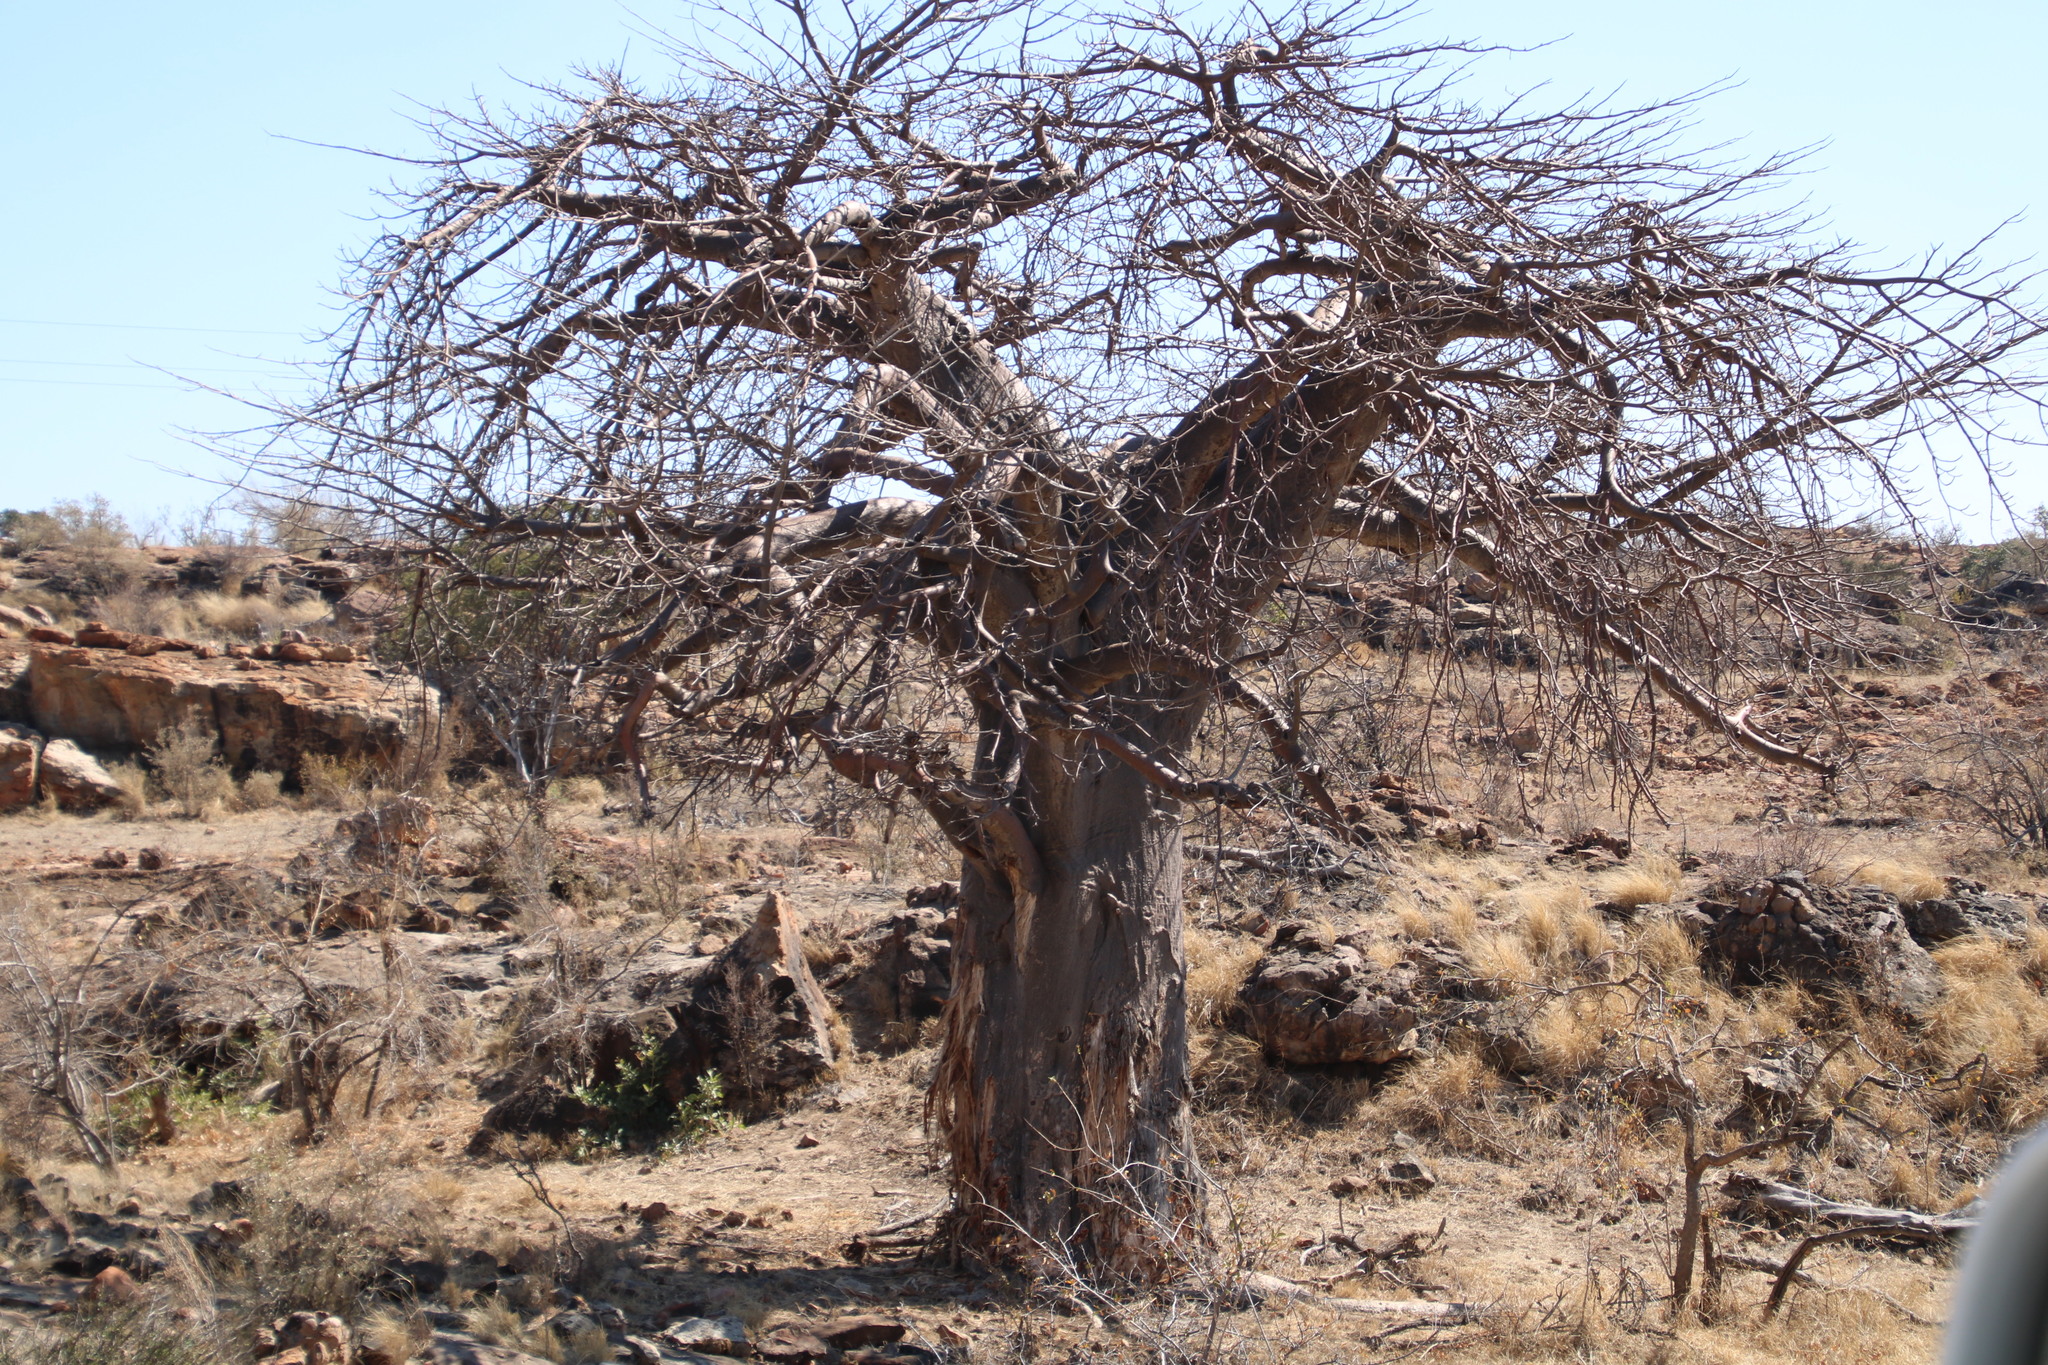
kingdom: Plantae
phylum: Tracheophyta
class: Magnoliopsida
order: Malvales
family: Malvaceae
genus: Adansonia
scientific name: Adansonia digitata
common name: Dead-rat-tree
